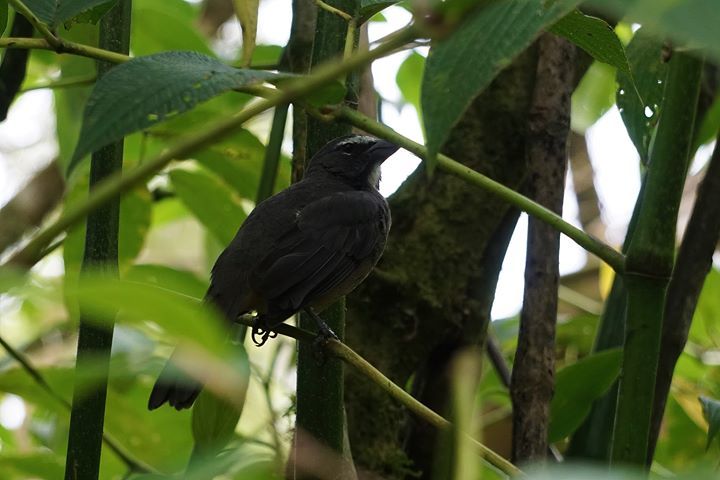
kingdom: Animalia
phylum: Chordata
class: Aves
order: Passeriformes
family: Thraupidae
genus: Saltator
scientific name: Saltator grandis
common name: Cinnamon-bellied saltator
